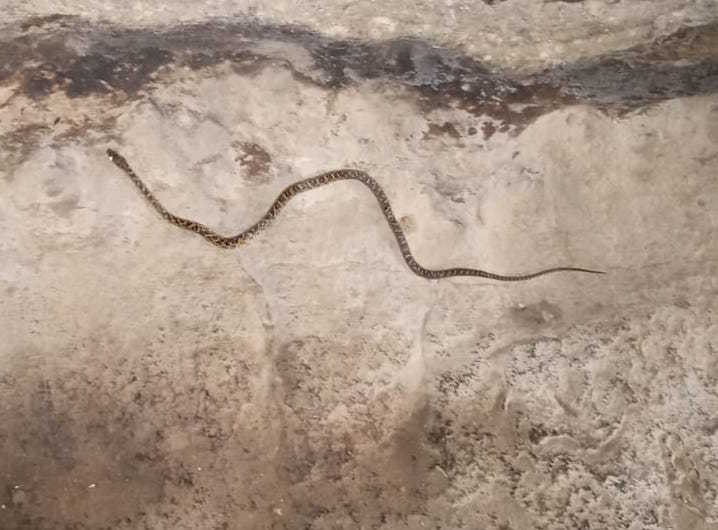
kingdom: Animalia
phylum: Chordata
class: Squamata
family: Colubridae
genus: Senticolis
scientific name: Senticolis triaspis
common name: Green rat snake
